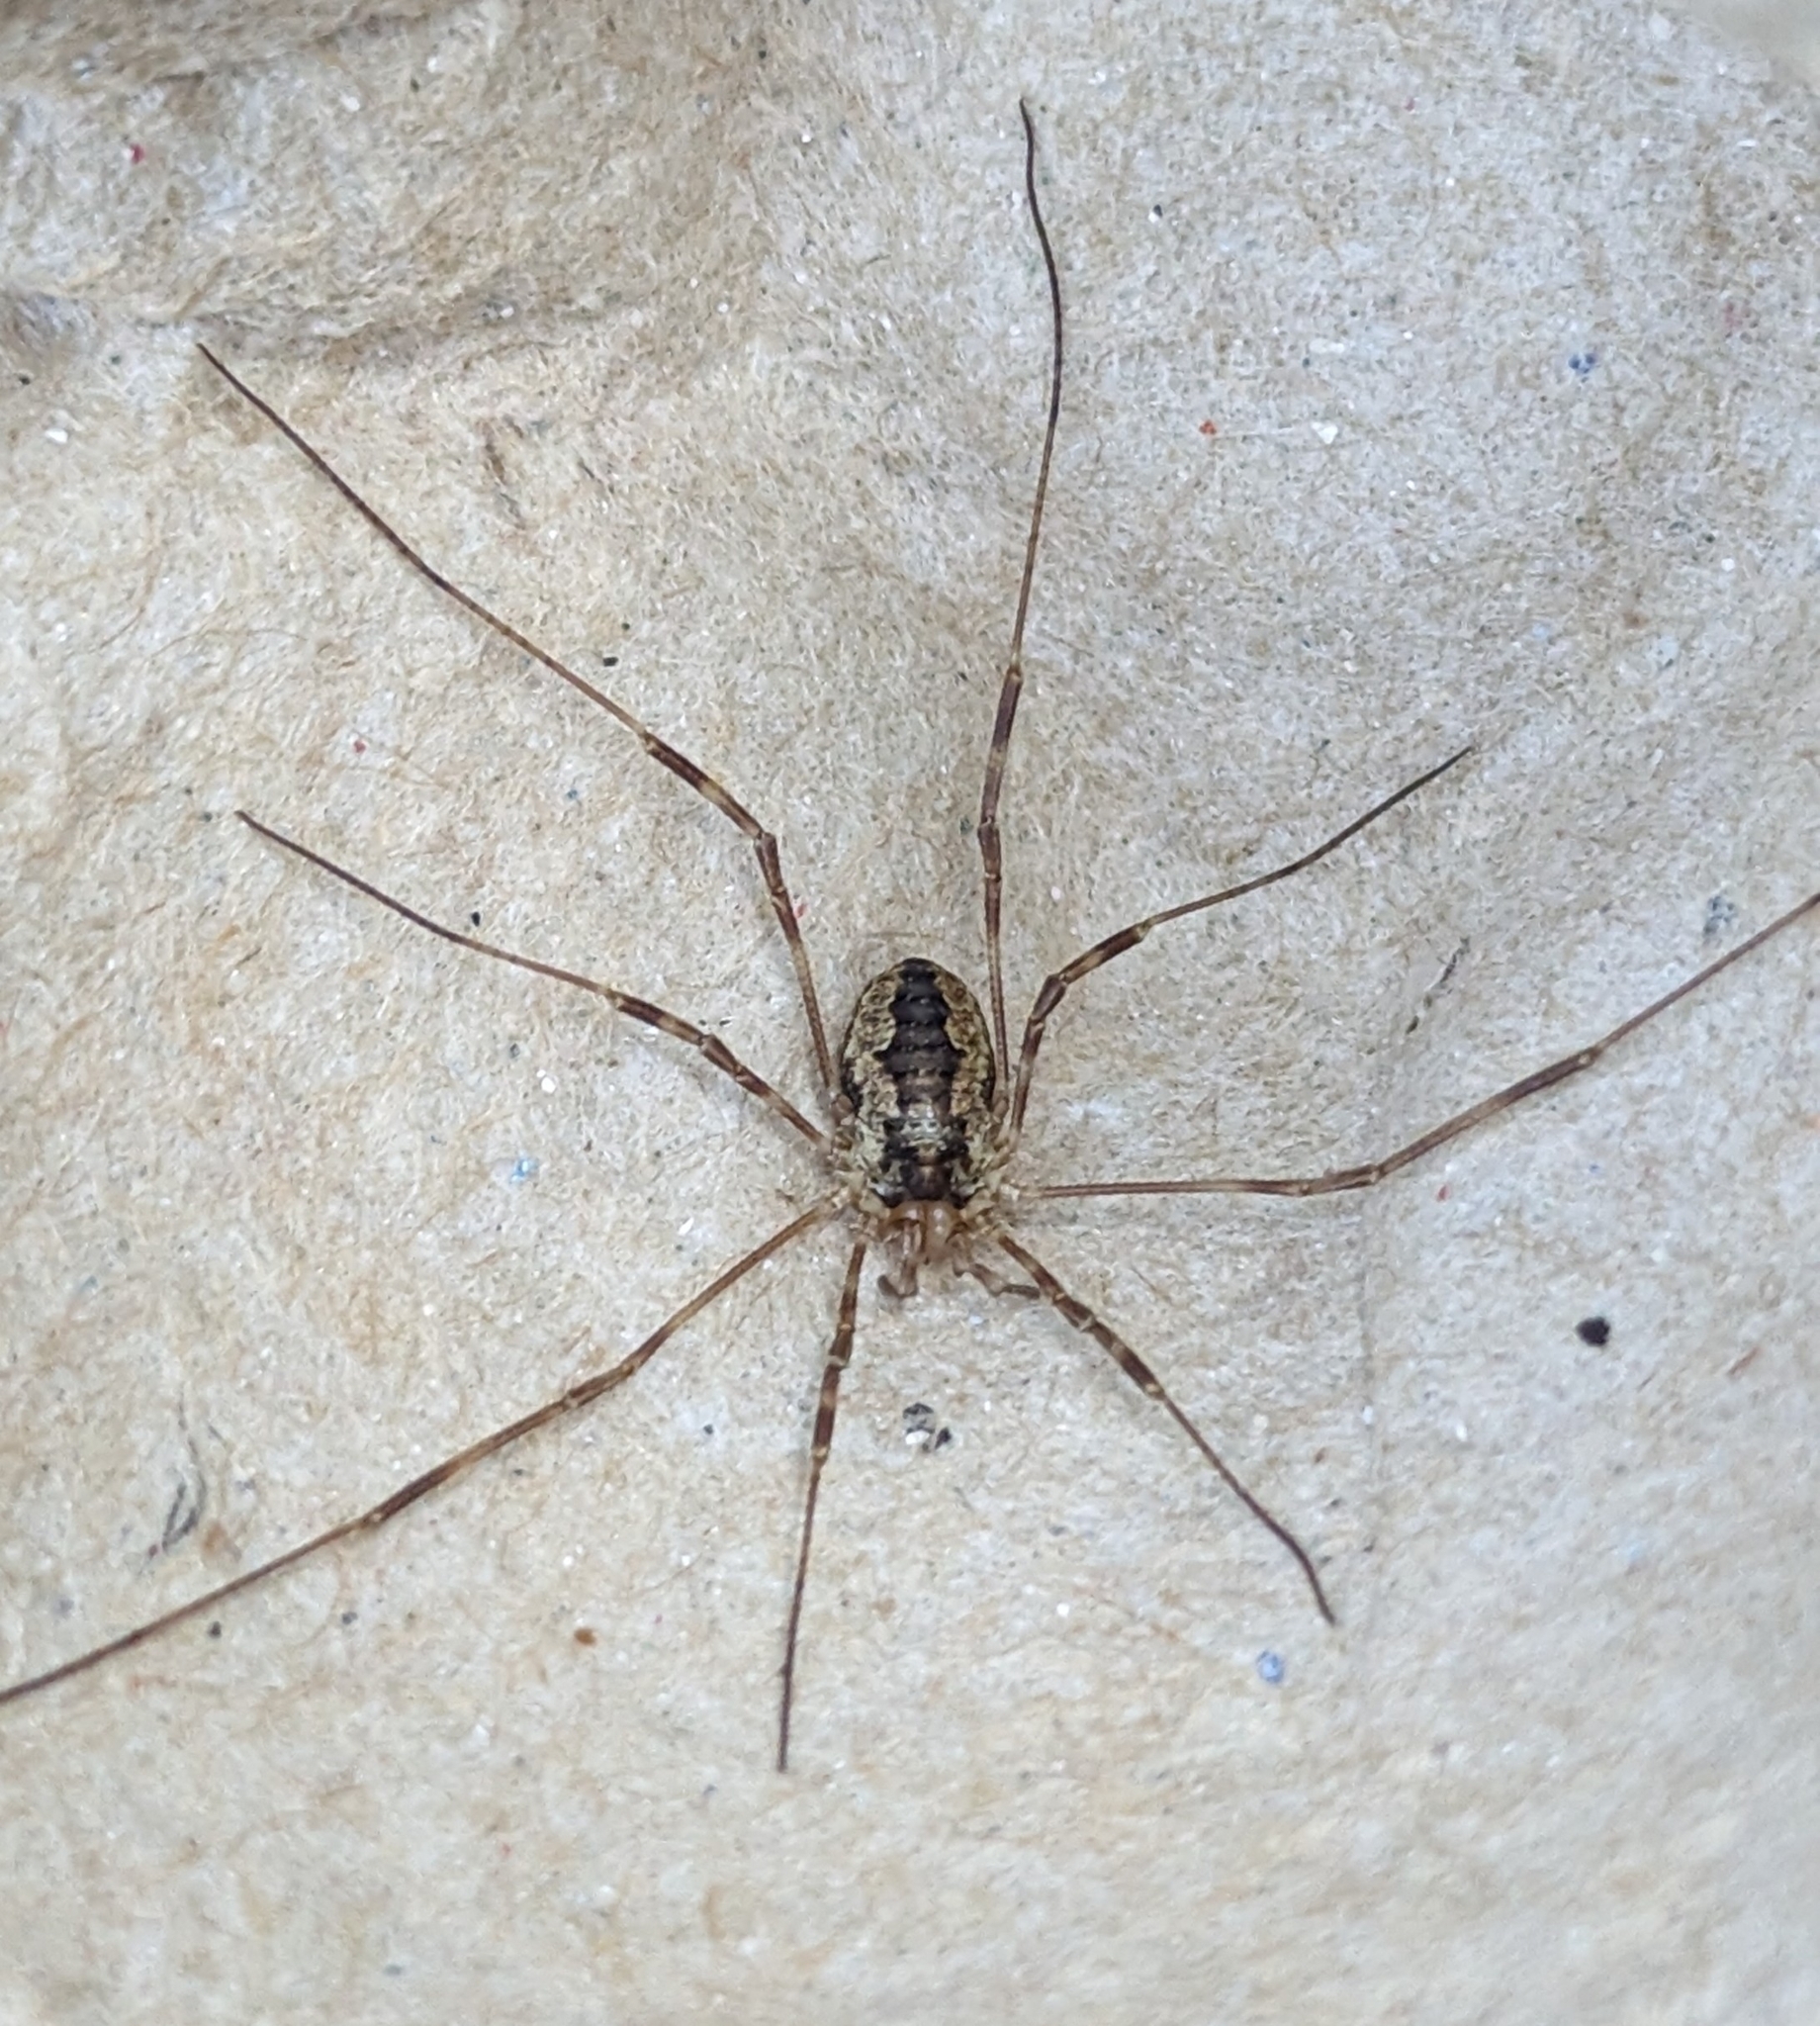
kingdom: Animalia
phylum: Arthropoda
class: Arachnida
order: Opiliones
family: Phalangiidae
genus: Odiellus
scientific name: Odiellus pictus
